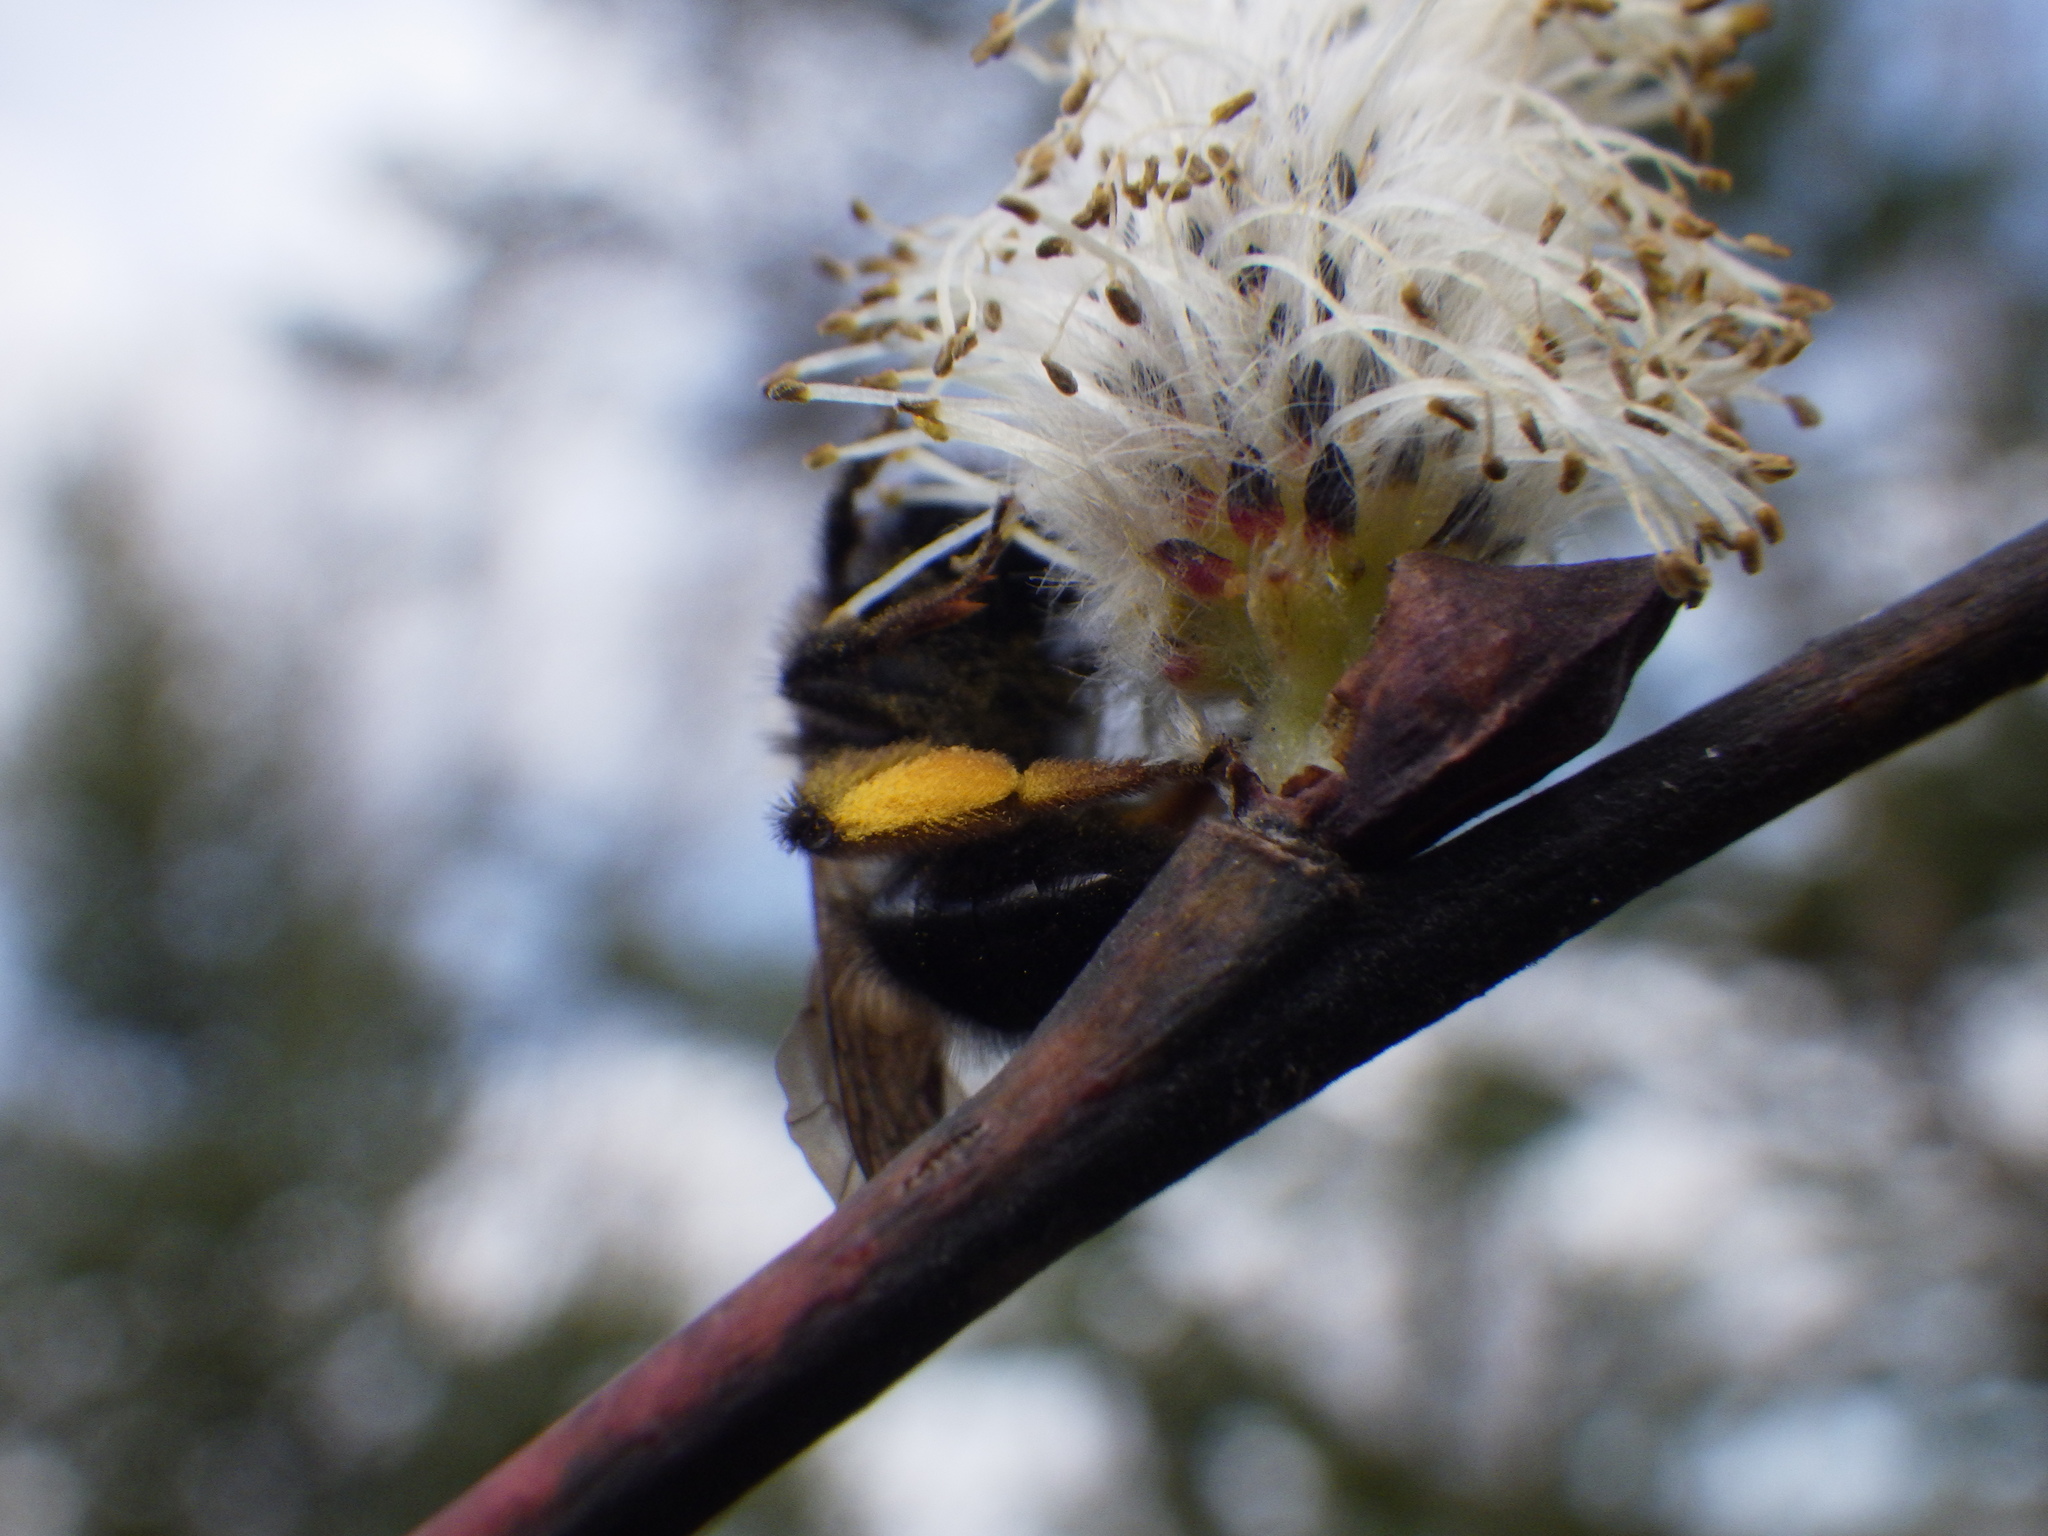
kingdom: Animalia
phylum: Arthropoda
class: Insecta
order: Hymenoptera
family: Andrenidae
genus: Andrena
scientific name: Andrena clarkella
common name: Clarke's mining bee
